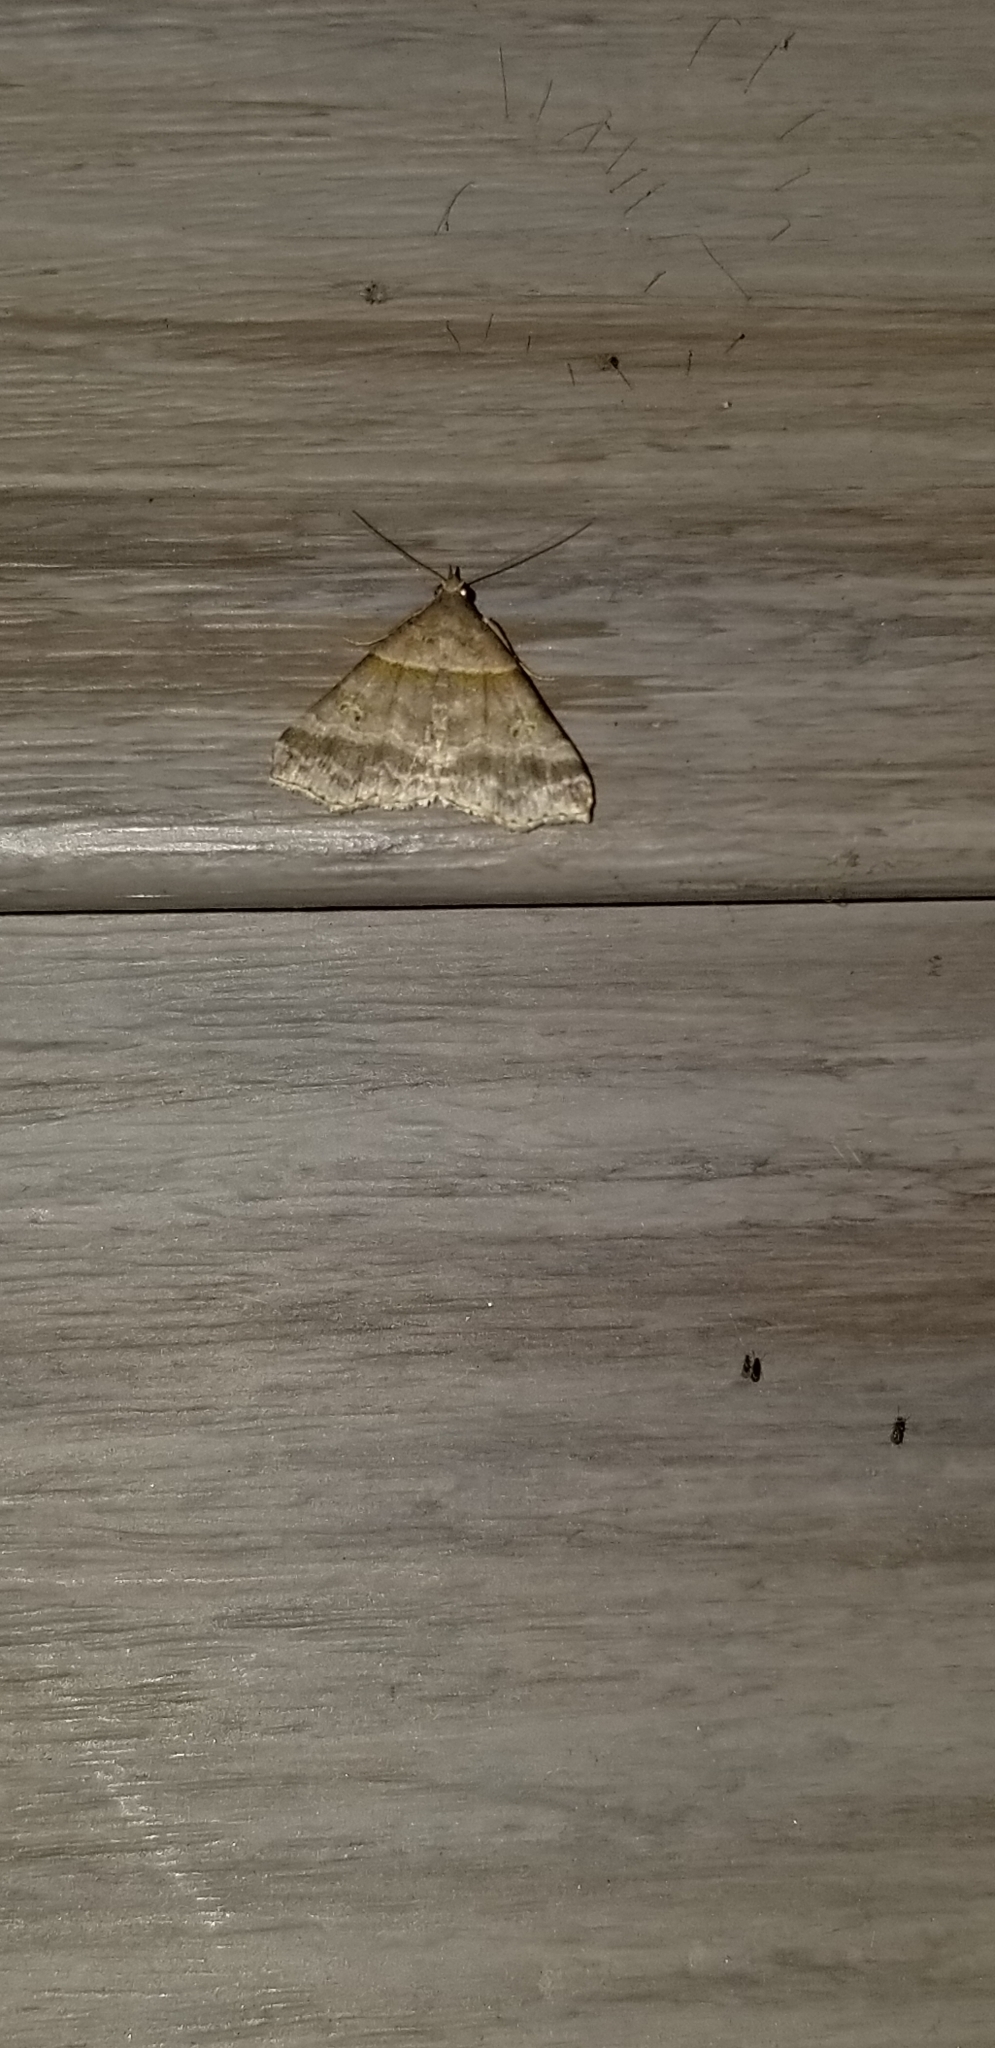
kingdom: Animalia
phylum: Arthropoda
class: Insecta
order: Lepidoptera
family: Erebidae
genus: Phaeolita
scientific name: Phaeolita pyramusalis
